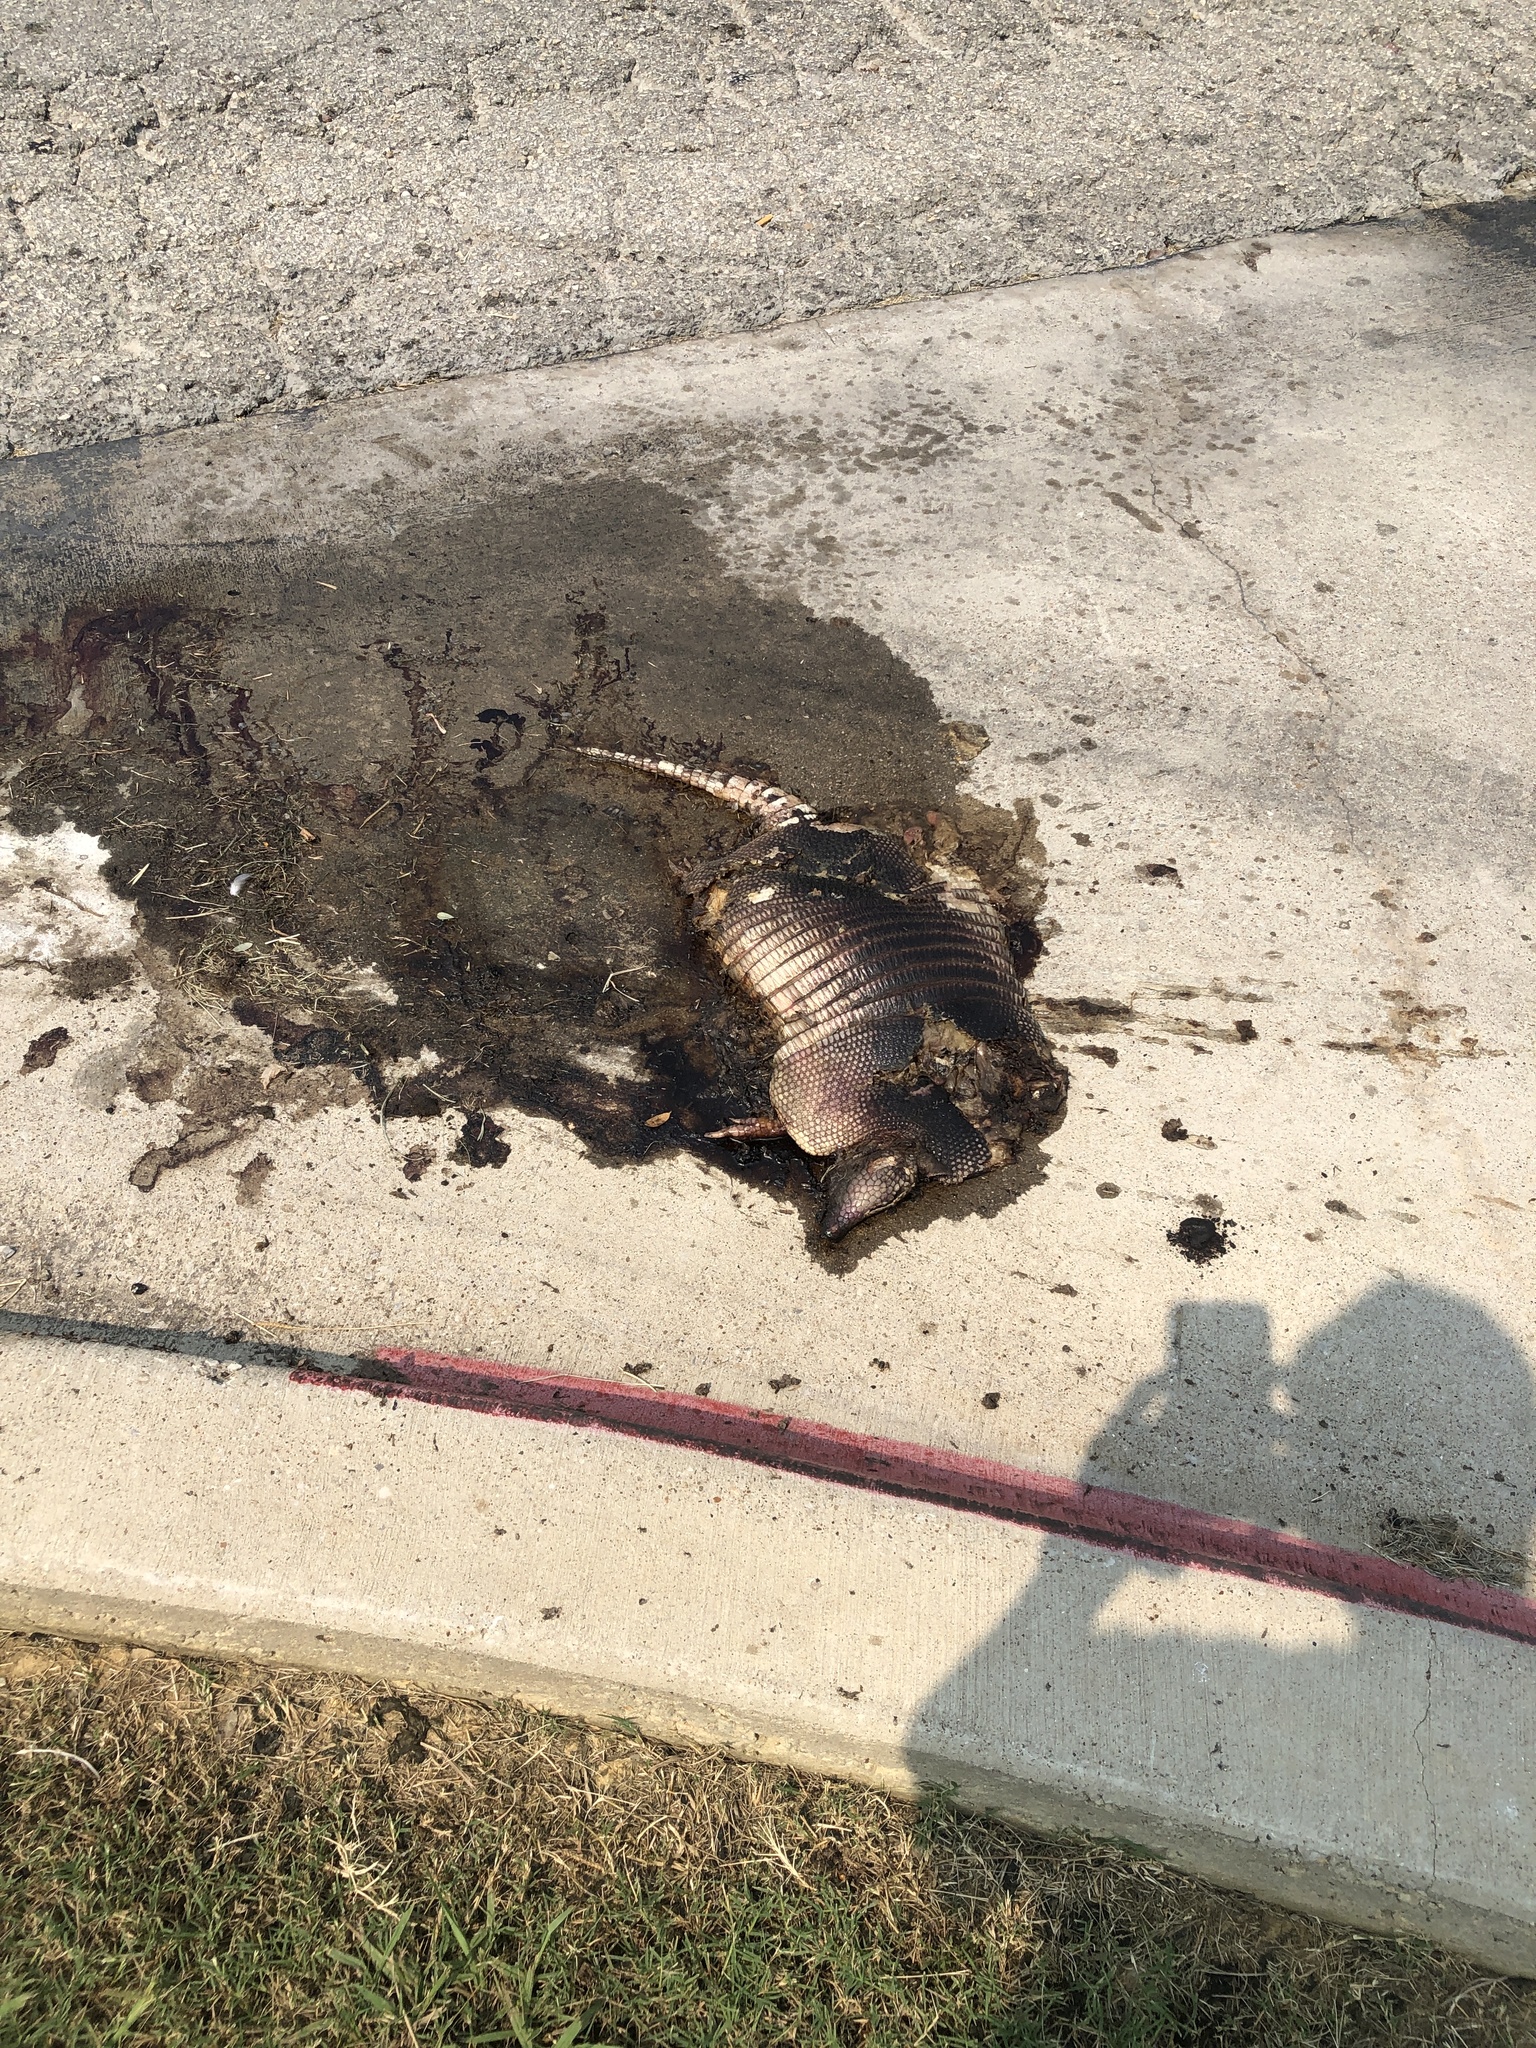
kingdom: Animalia
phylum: Chordata
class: Mammalia
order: Cingulata
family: Dasypodidae
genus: Dasypus
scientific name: Dasypus novemcinctus
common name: Nine-banded armadillo
